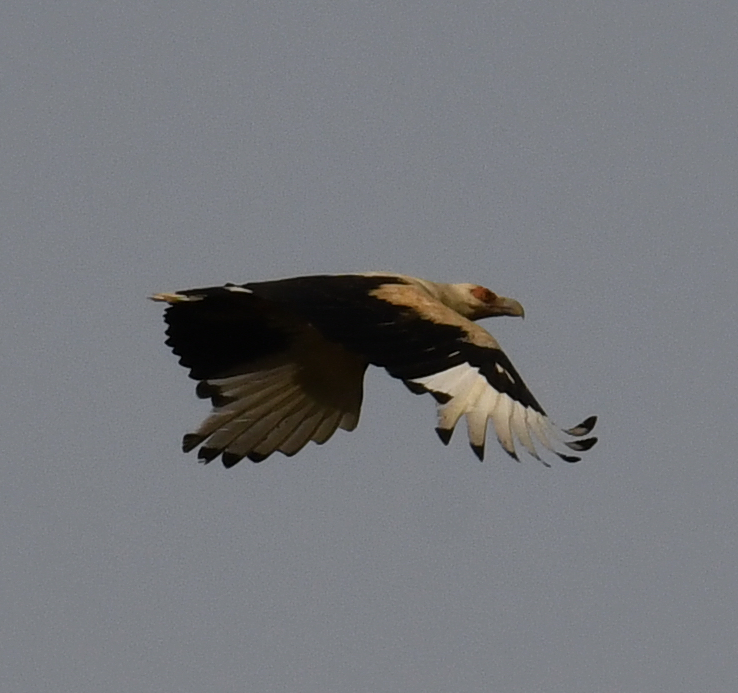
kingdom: Animalia
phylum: Chordata
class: Aves
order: Accipitriformes
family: Accipitridae
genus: Gypohierax
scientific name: Gypohierax angolensis
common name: Palm-nut vulture
